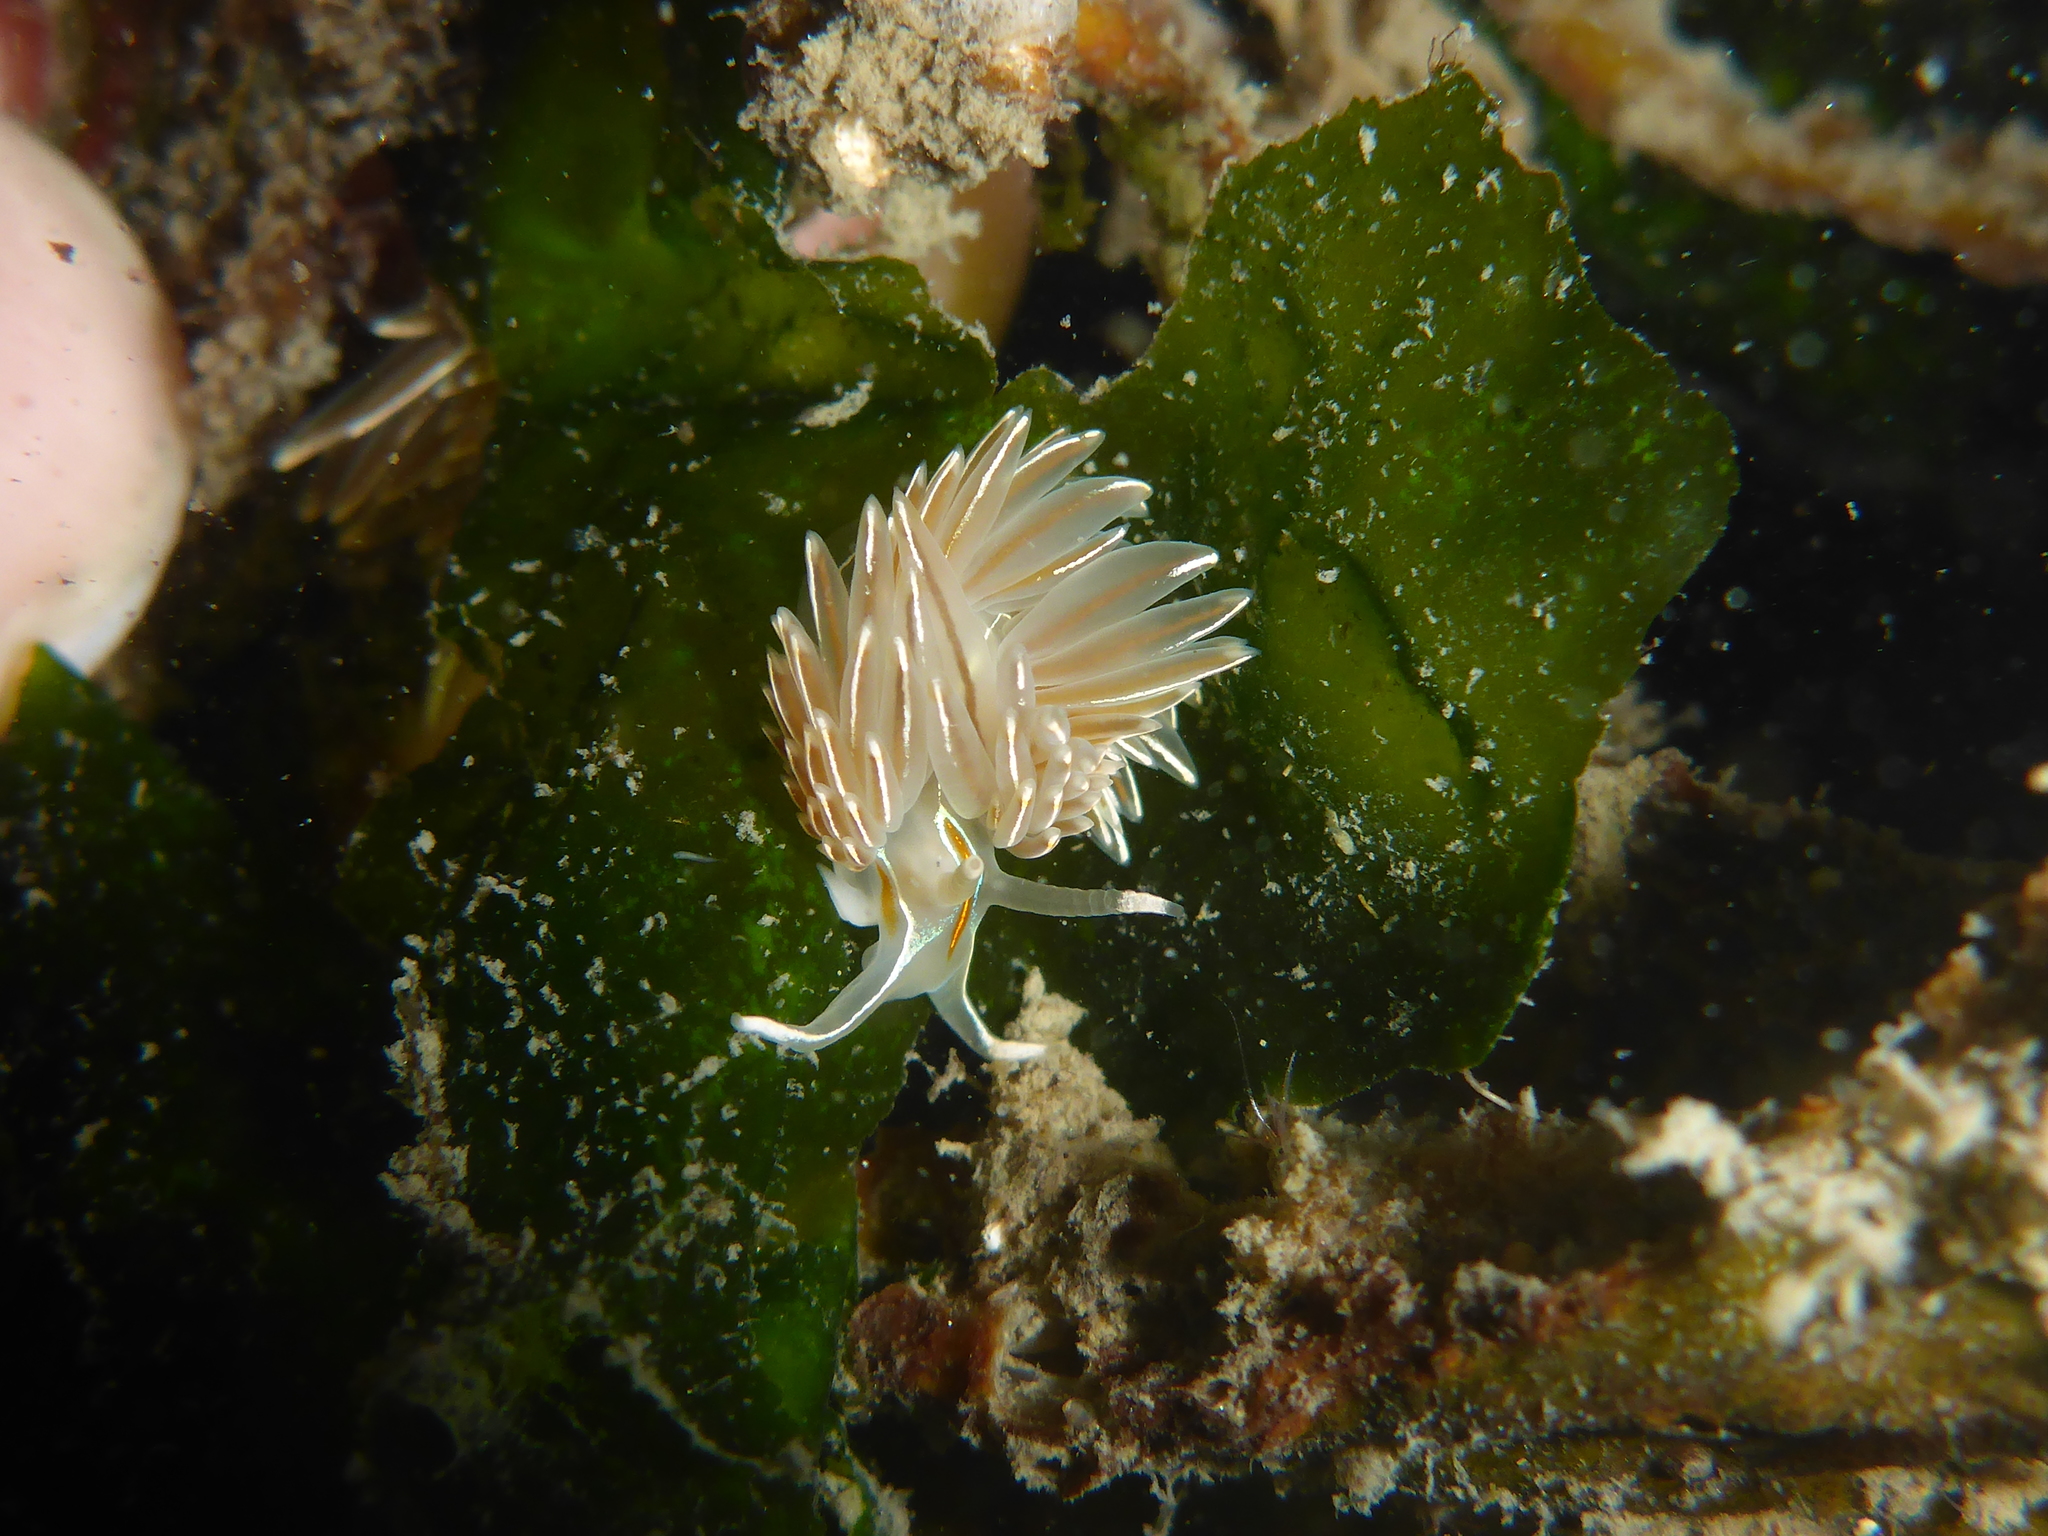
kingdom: Animalia
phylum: Mollusca
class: Gastropoda
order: Nudibranchia
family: Myrrhinidae
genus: Hermissenda
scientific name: Hermissenda crassicornis
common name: Hermissenda
